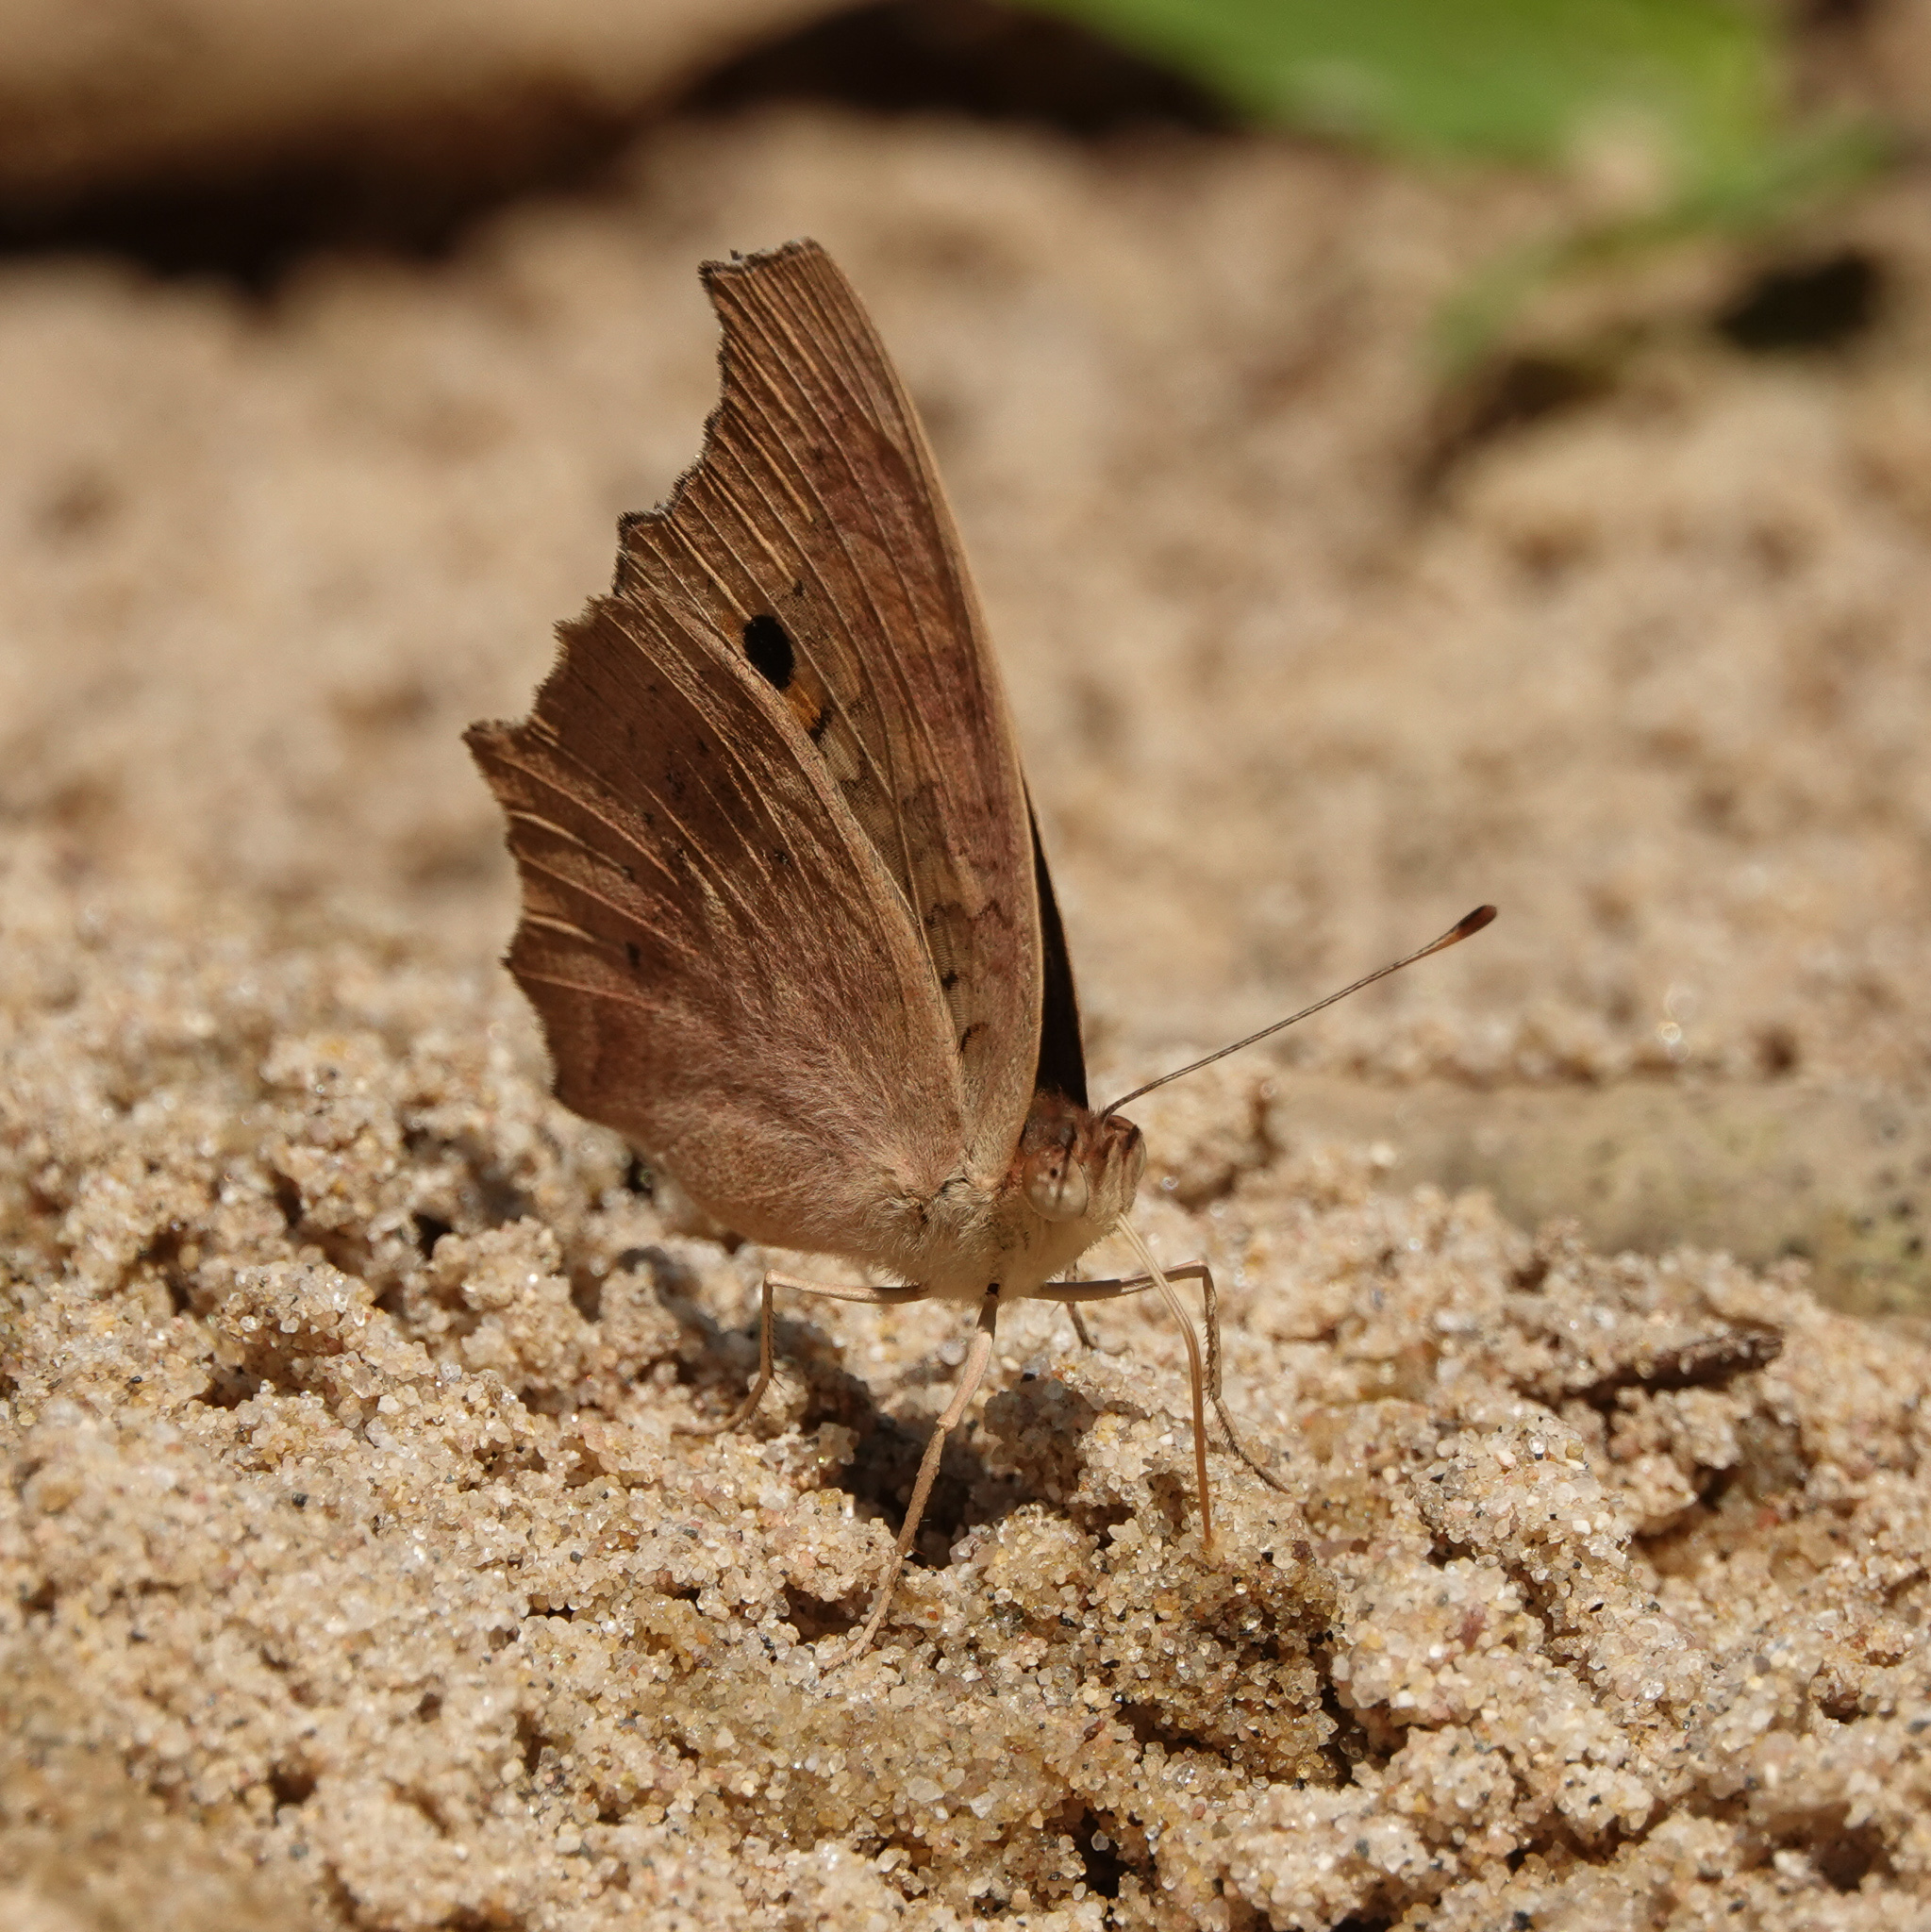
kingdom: Animalia
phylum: Arthropoda
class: Insecta
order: Lepidoptera
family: Nymphalidae
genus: Junonia
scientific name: Junonia lemonias
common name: Lemon pansy
